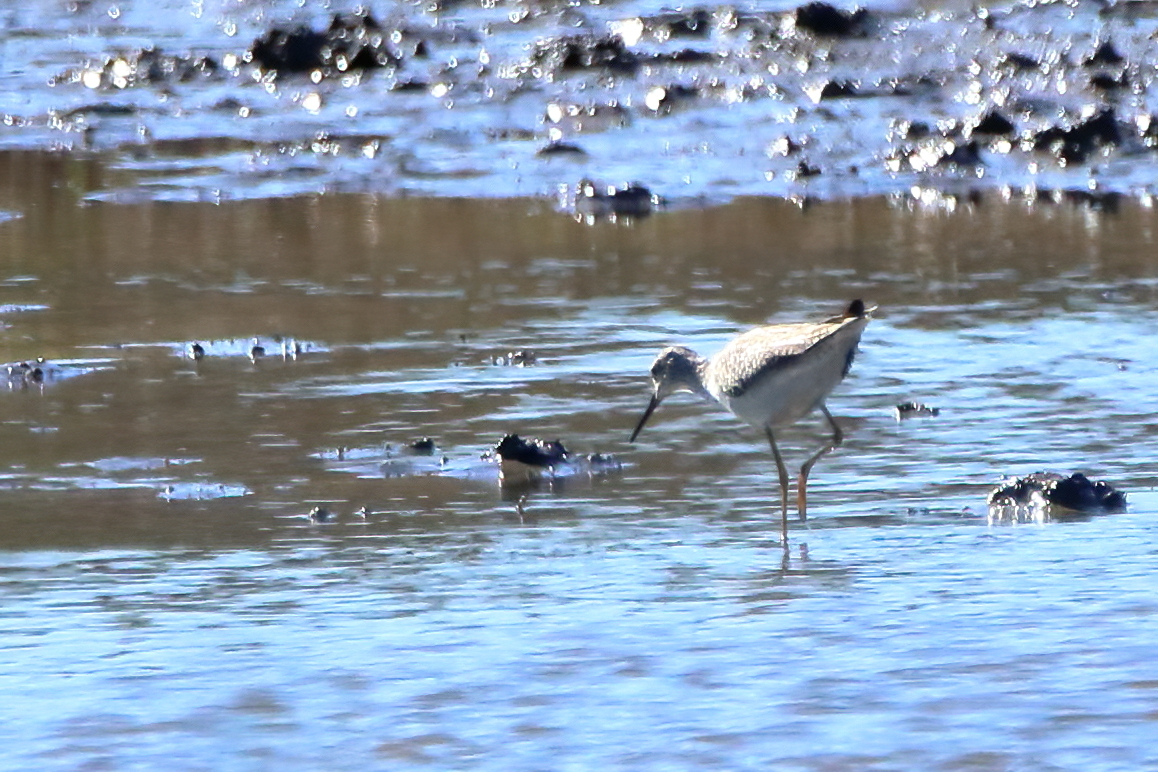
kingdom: Animalia
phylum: Chordata
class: Aves
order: Charadriiformes
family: Scolopacidae
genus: Tringa
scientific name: Tringa flavipes
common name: Lesser yellowlegs
